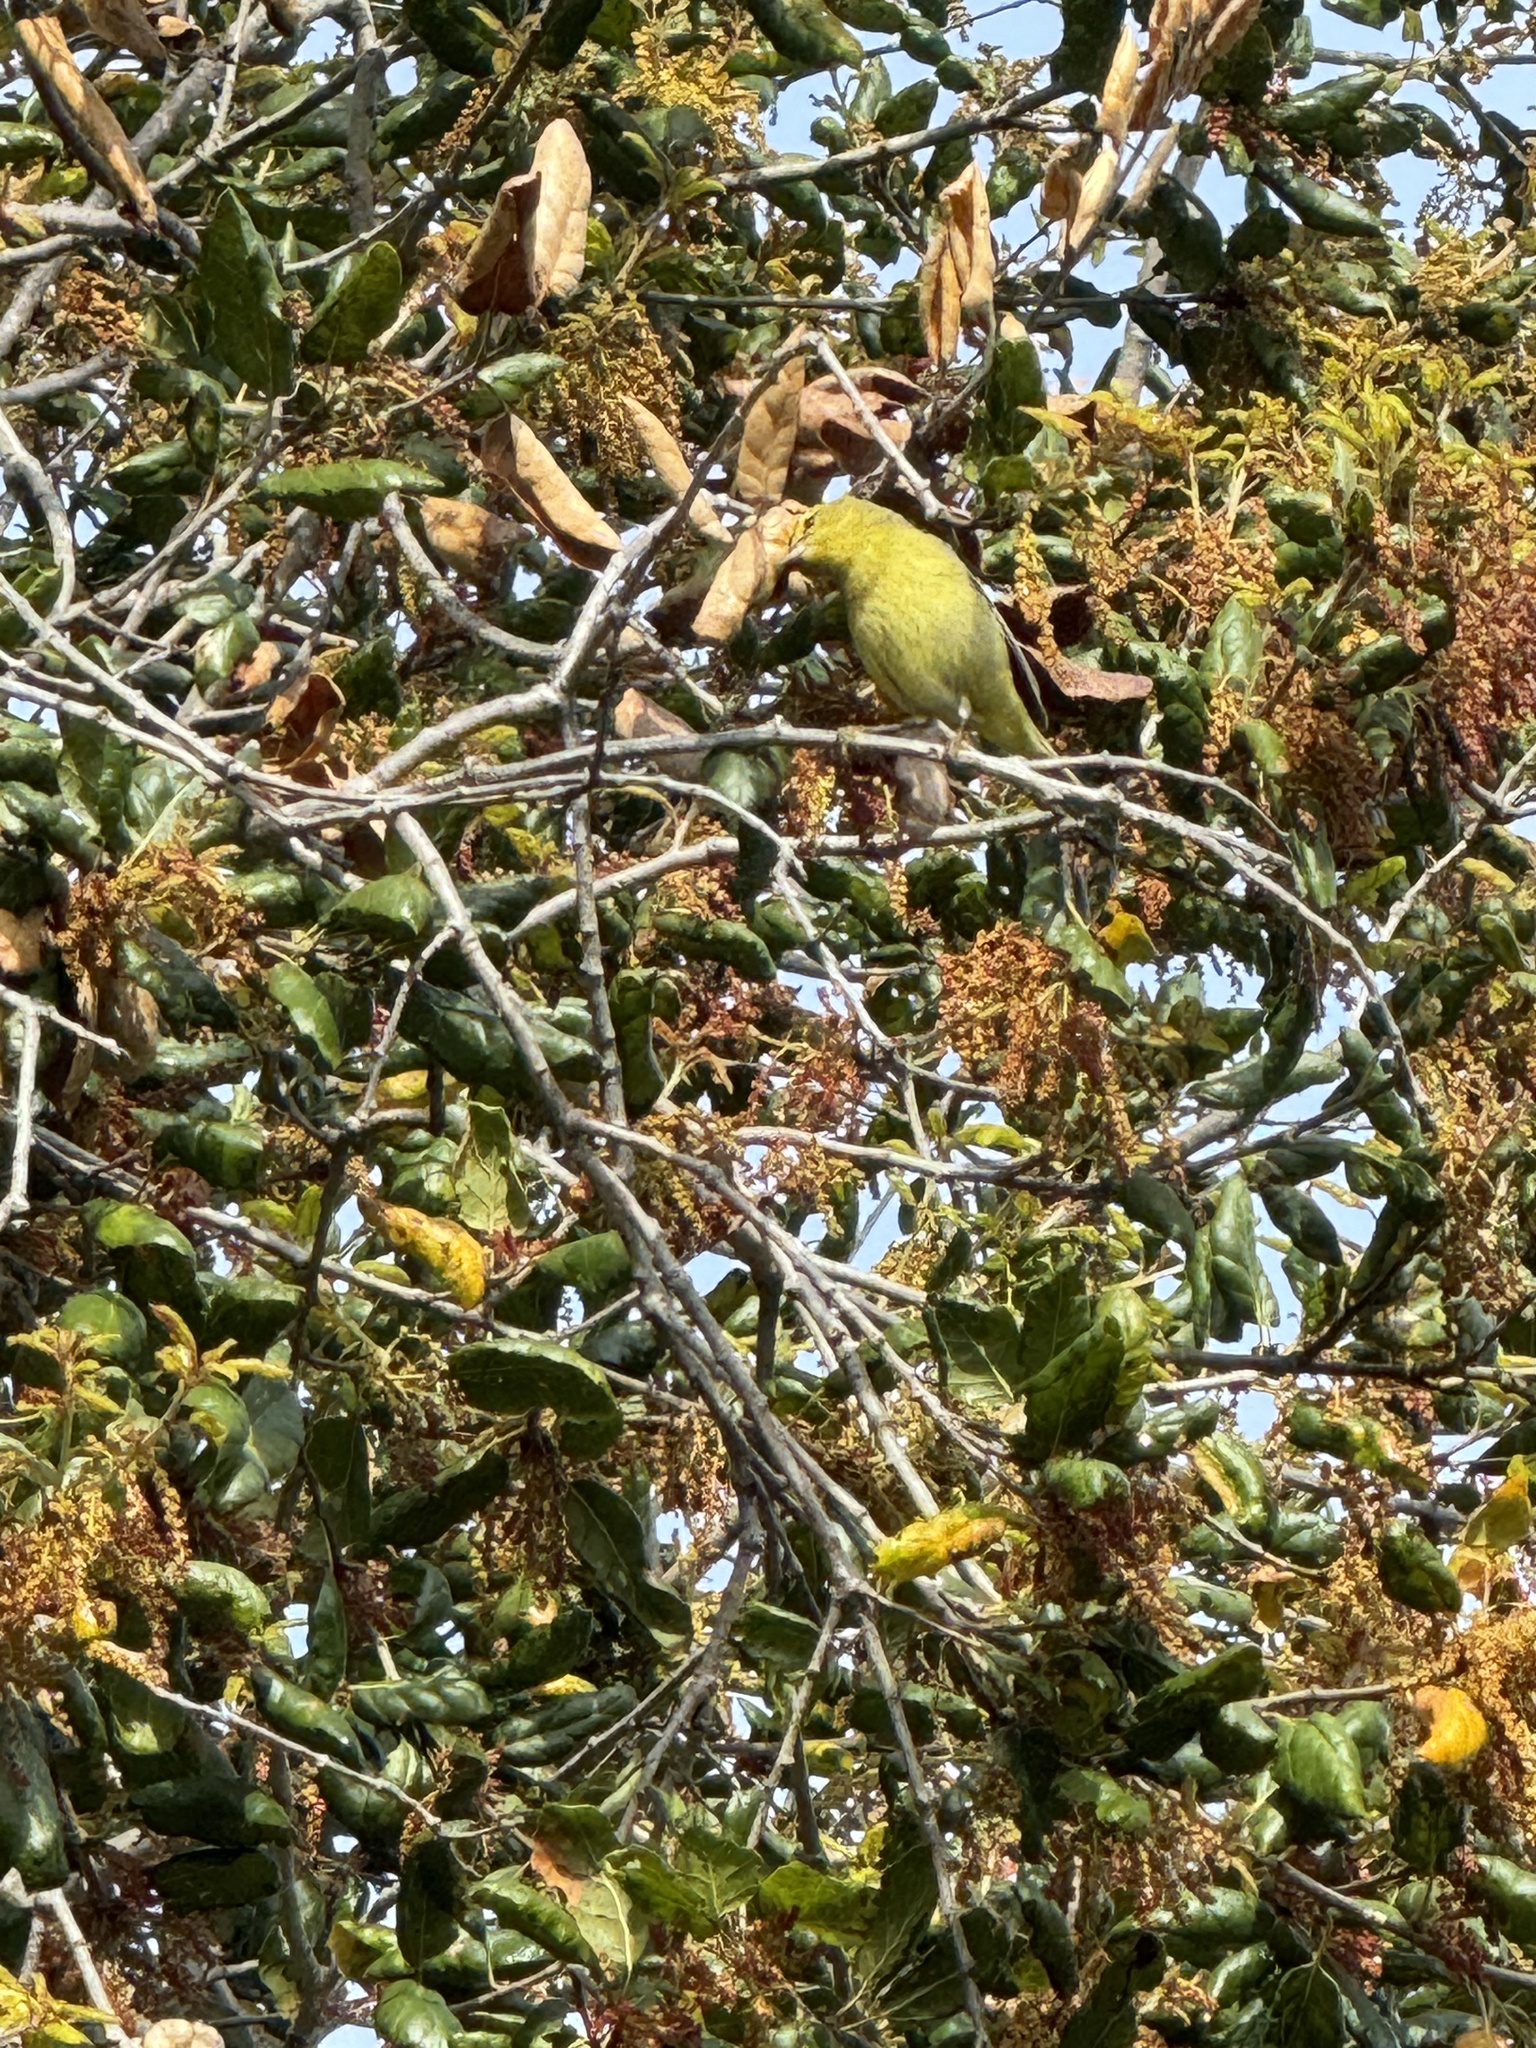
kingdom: Animalia
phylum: Chordata
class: Aves
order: Passeriformes
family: Parulidae
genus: Leiothlypis
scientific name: Leiothlypis celata
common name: Orange-crowned warbler
